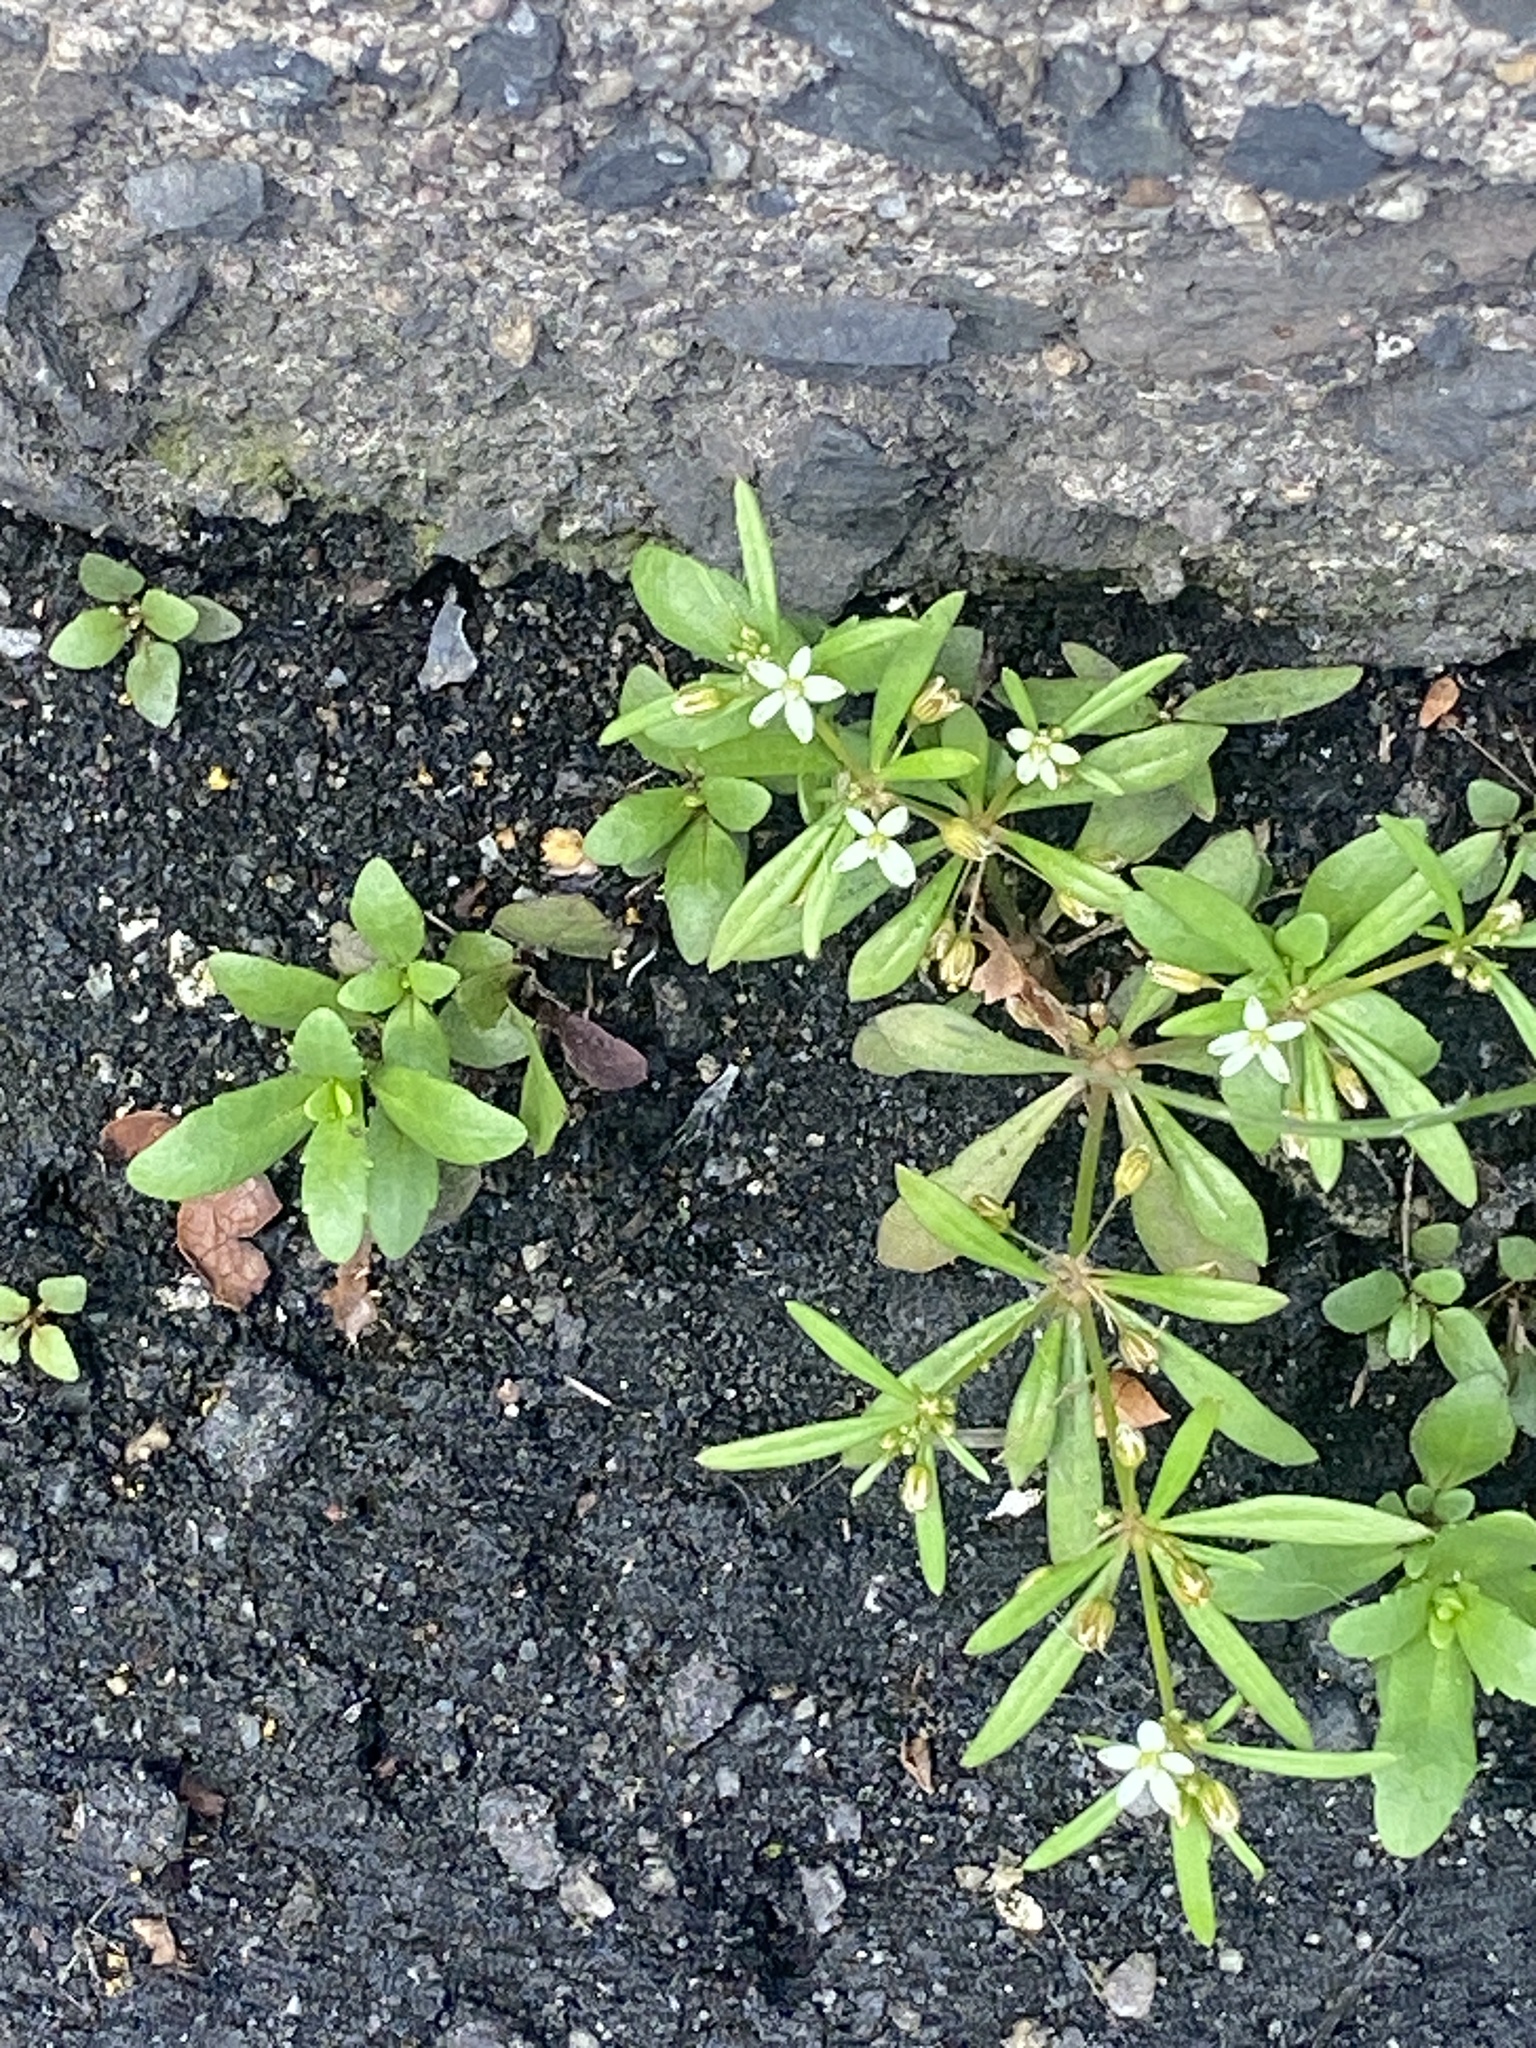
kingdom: Plantae
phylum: Tracheophyta
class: Magnoliopsida
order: Caryophyllales
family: Molluginaceae
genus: Mollugo
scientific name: Mollugo verticillata
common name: Green carpetweed
